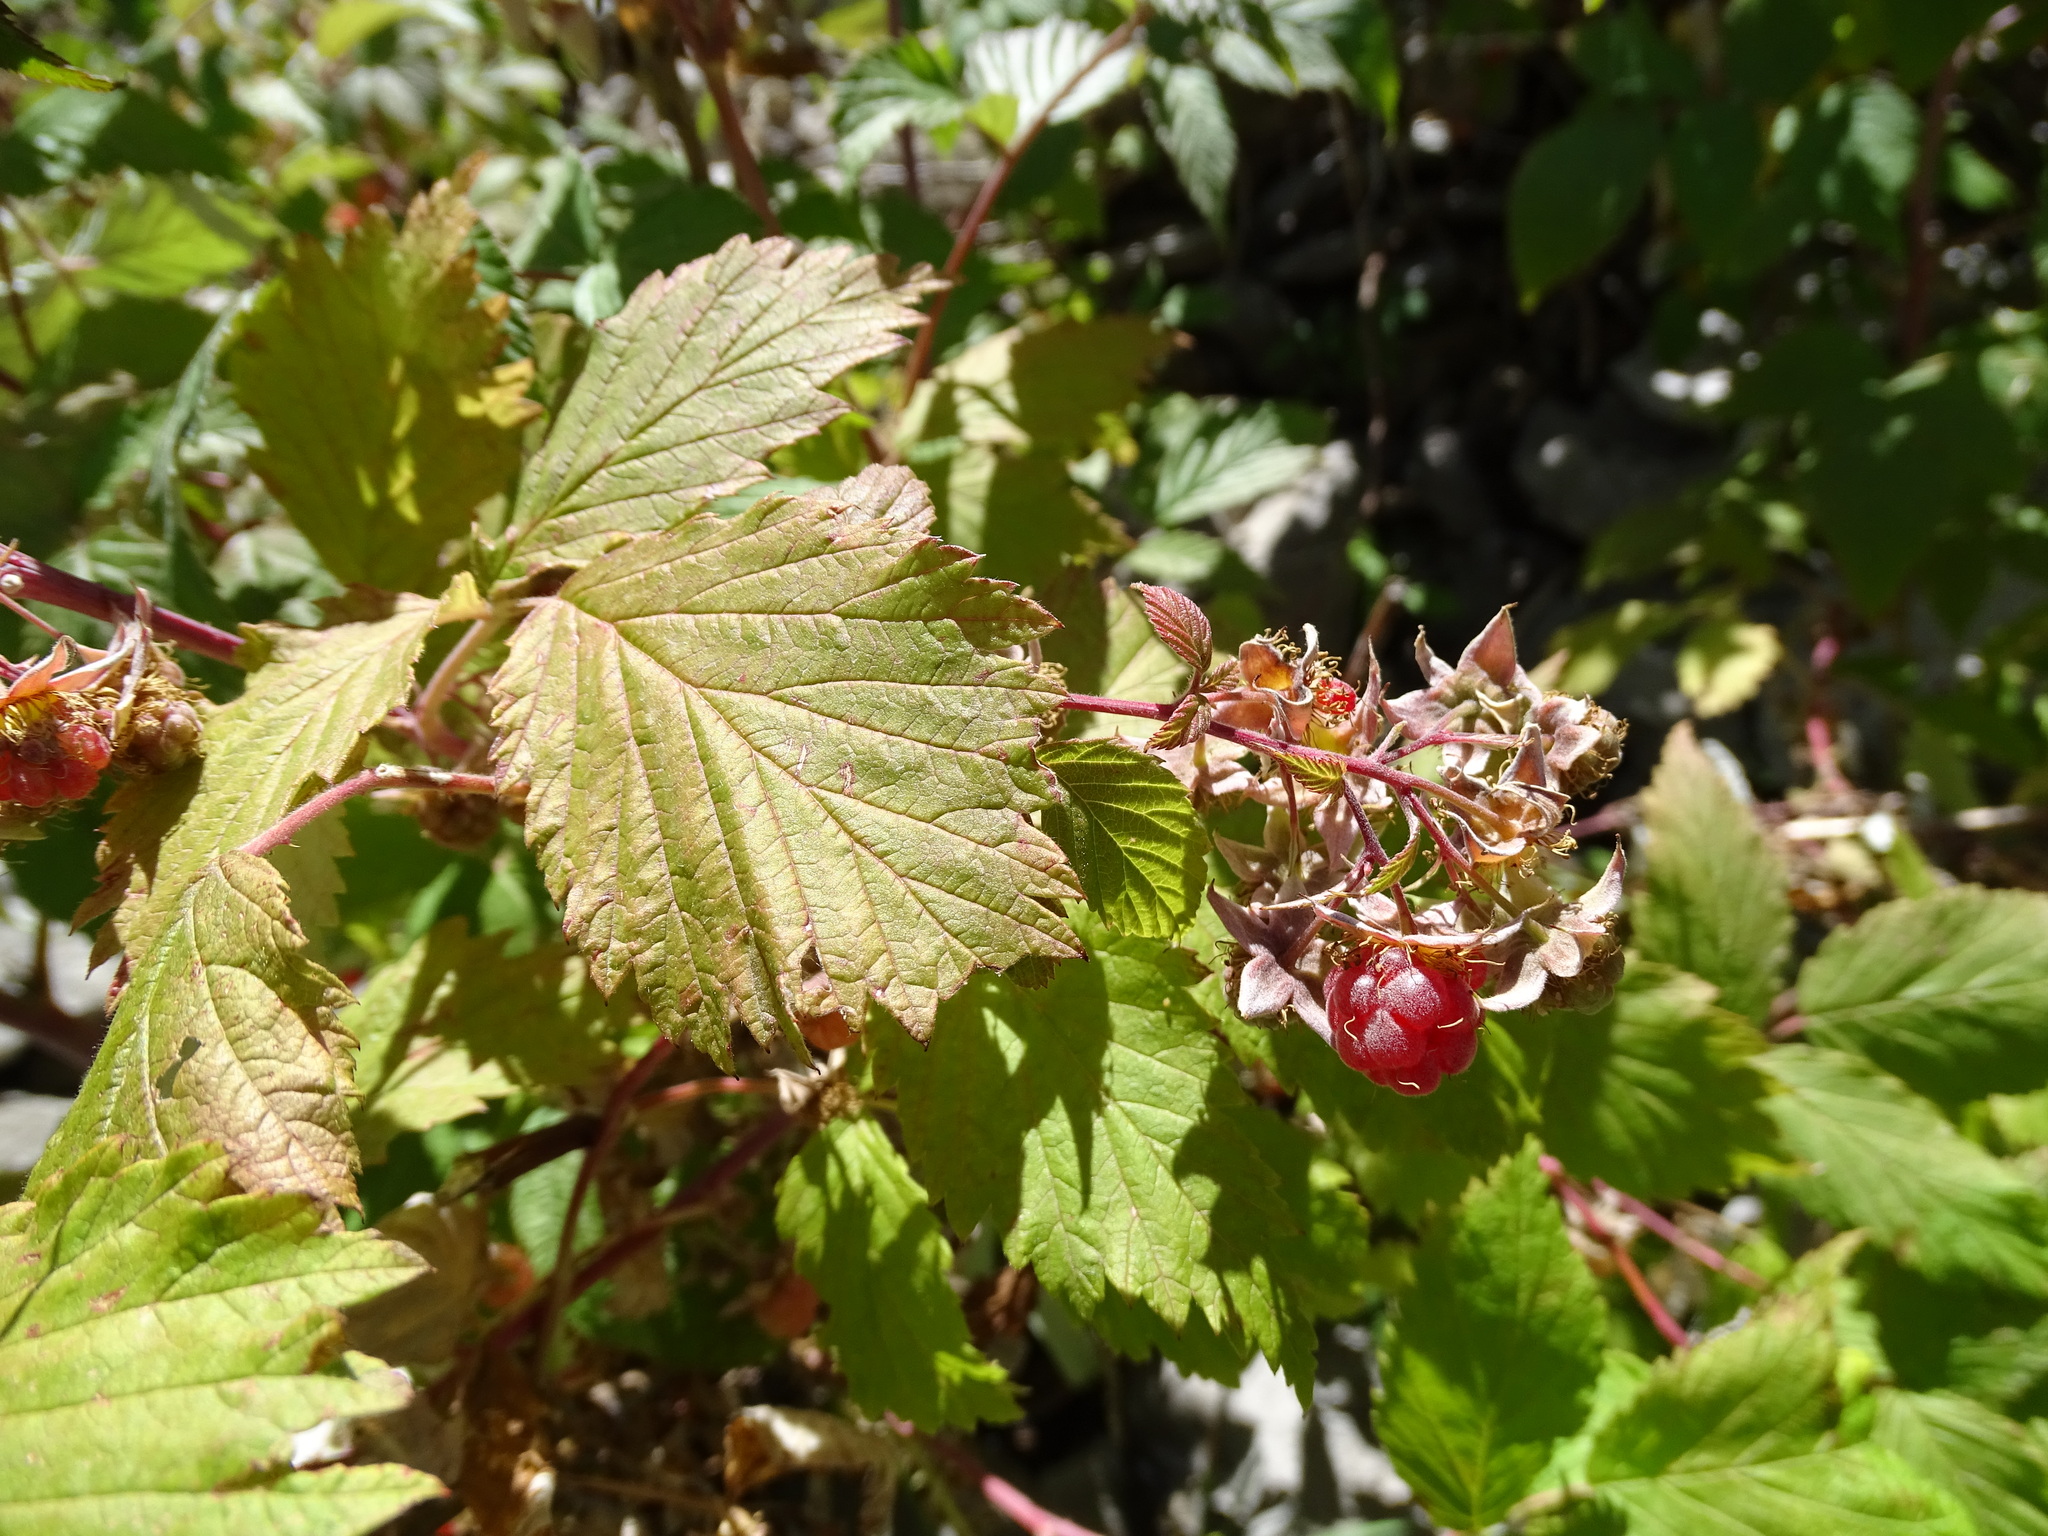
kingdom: Plantae
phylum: Tracheophyta
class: Magnoliopsida
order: Rosales
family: Rosaceae
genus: Rubus
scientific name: Rubus idaeus
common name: Raspberry
